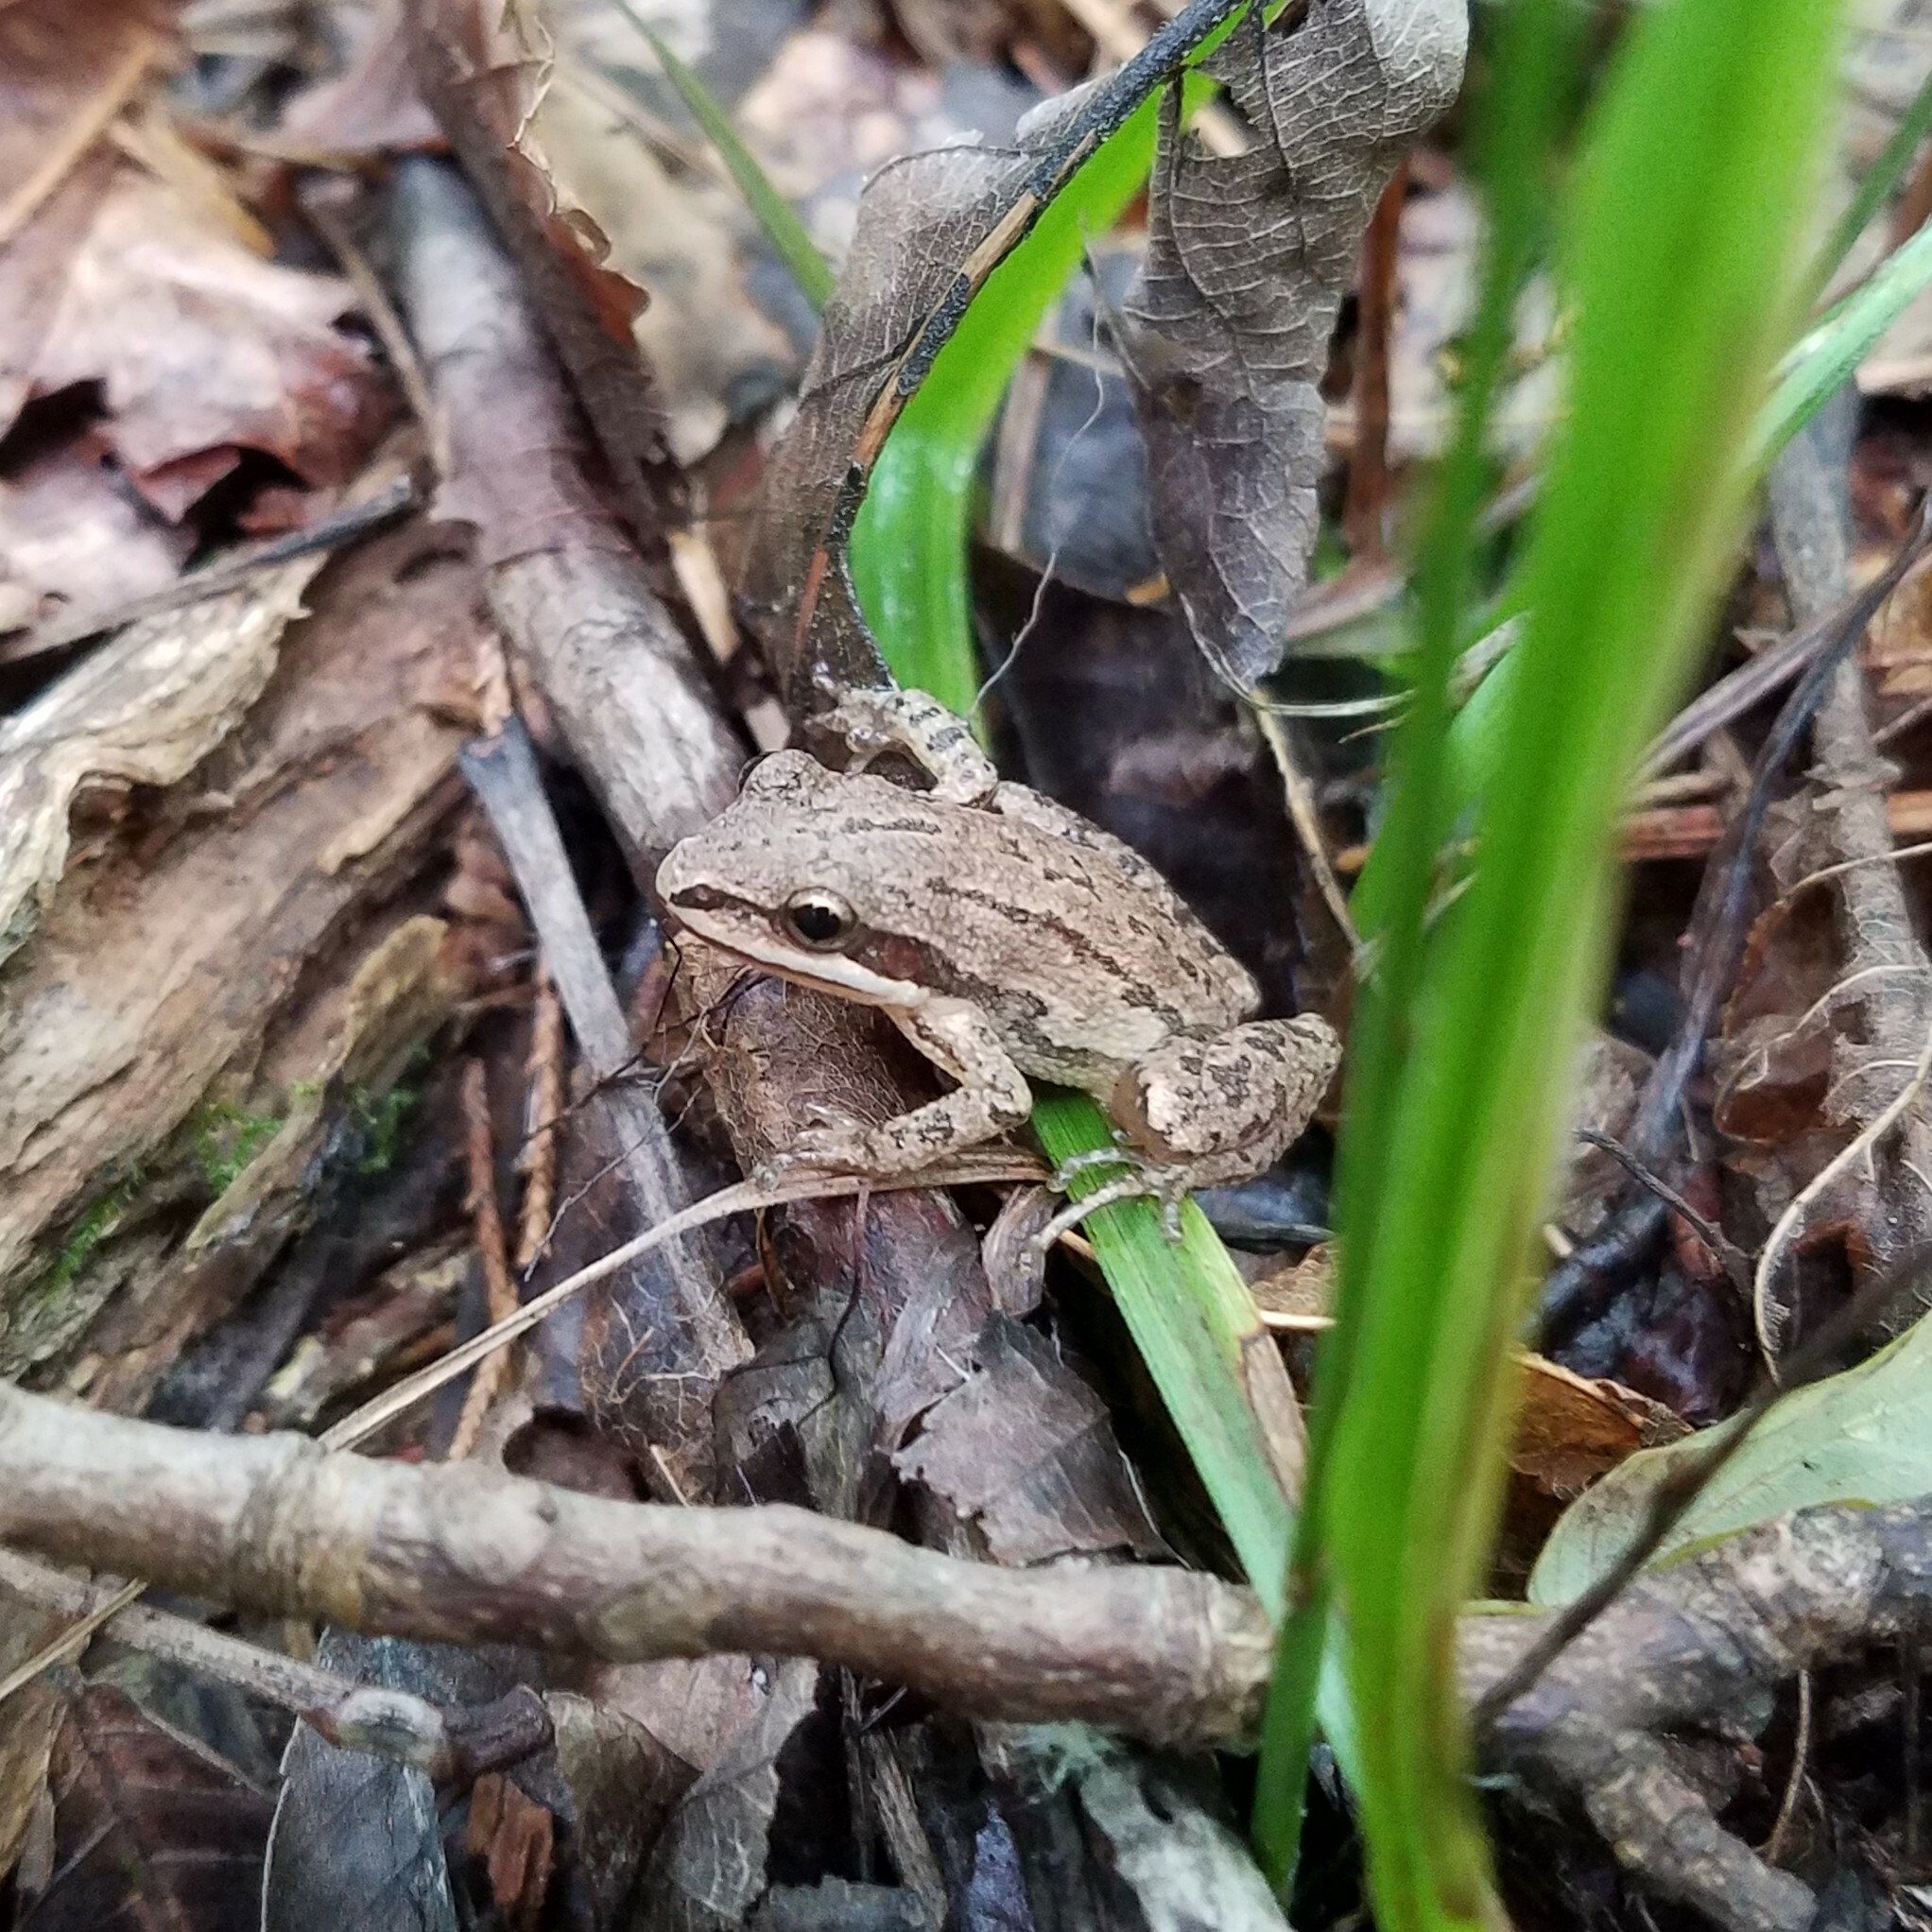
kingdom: Animalia
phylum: Chordata
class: Amphibia
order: Anura
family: Hylidae
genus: Pseudacris
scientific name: Pseudacris feriarum
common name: Upland chorus frog
